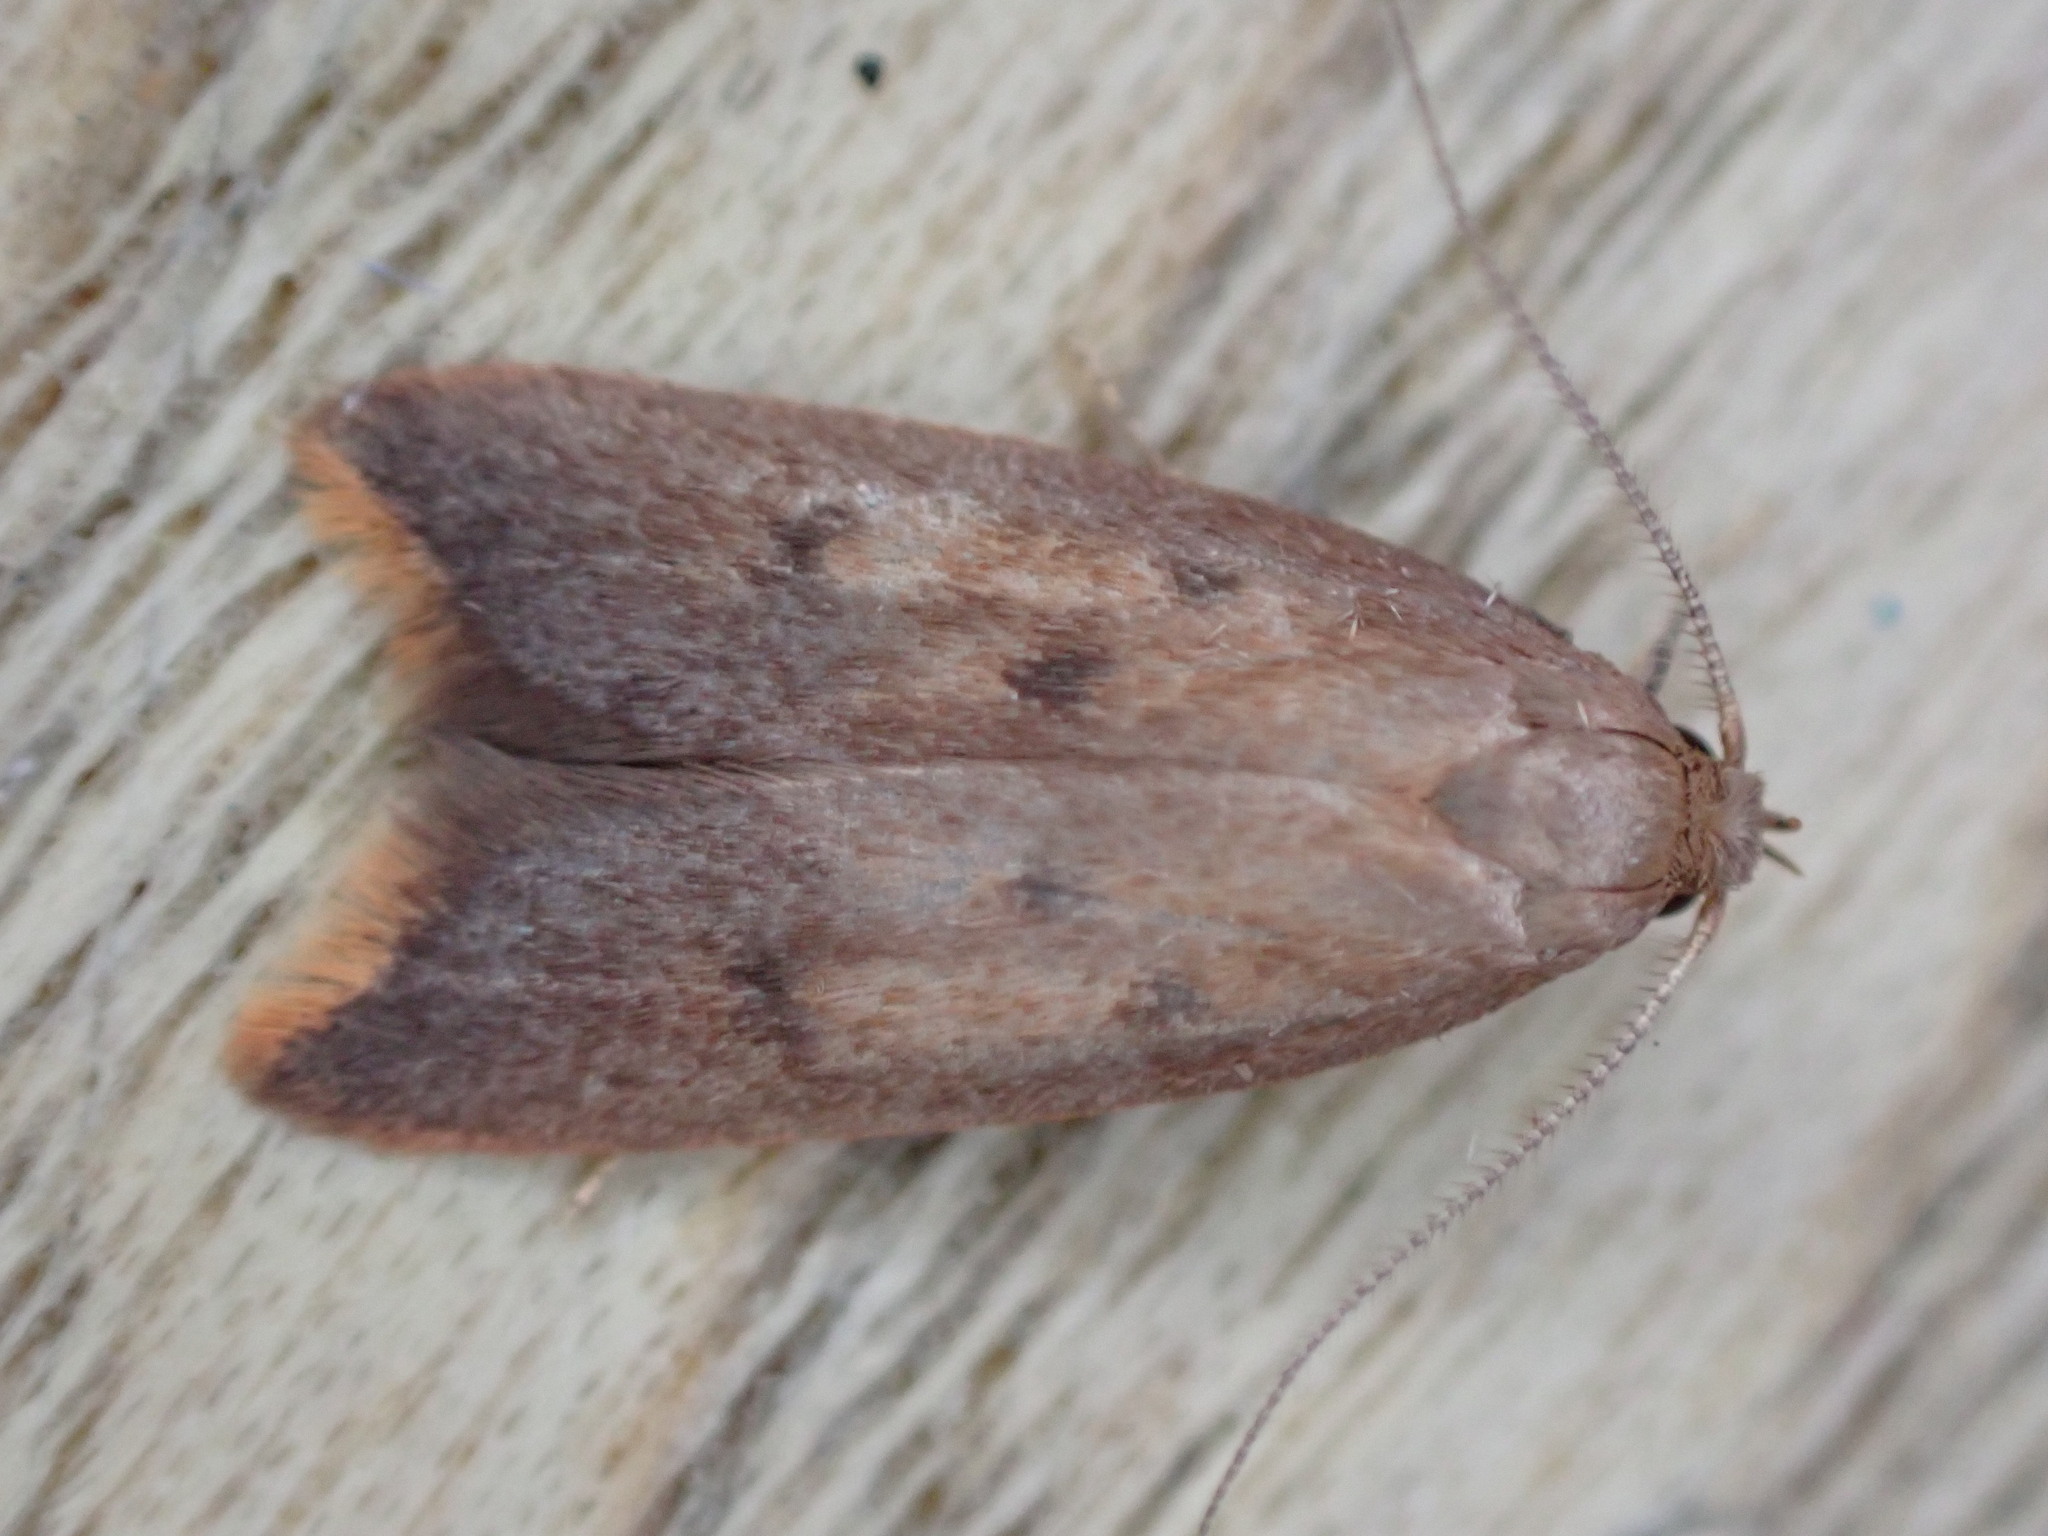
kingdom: Animalia
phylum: Arthropoda
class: Insecta
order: Lepidoptera
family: Oecophoridae
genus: Tachystola
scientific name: Tachystola acroxantha
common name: Ruddy streak
